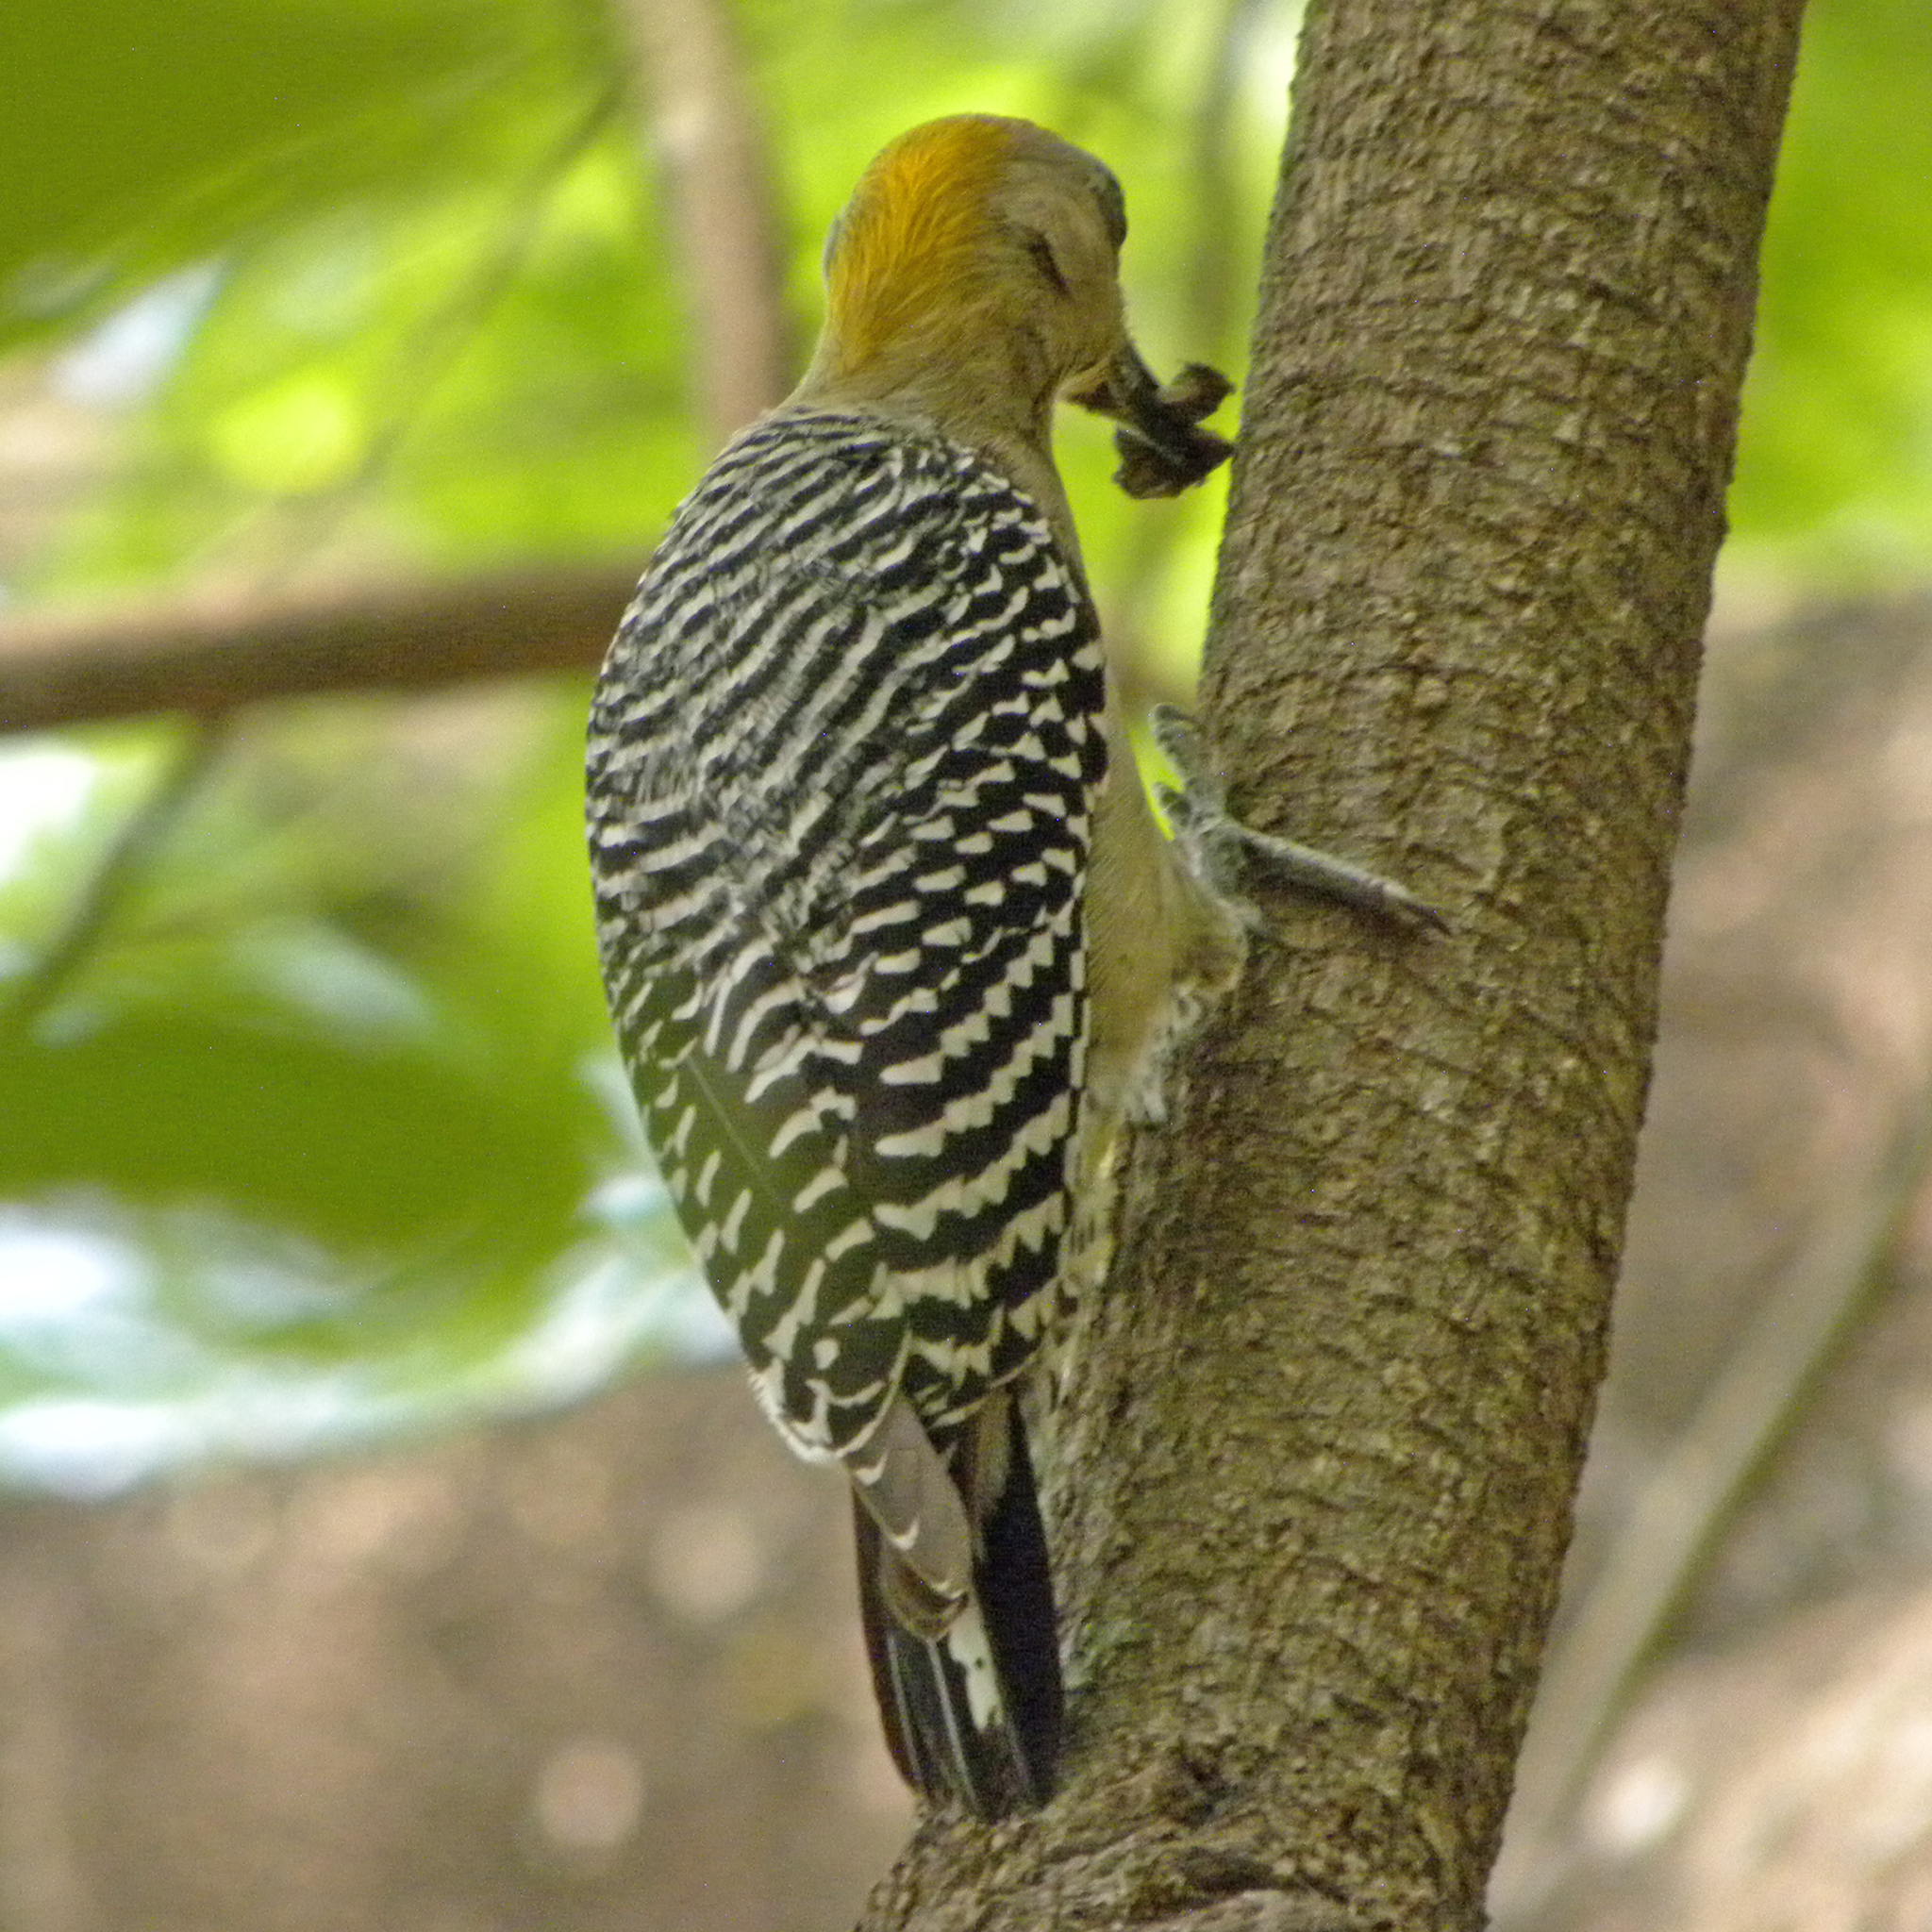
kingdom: Animalia
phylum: Chordata
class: Aves
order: Piciformes
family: Picidae
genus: Melanerpes
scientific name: Melanerpes hoffmannii
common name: Hoffmann's woodpecker
